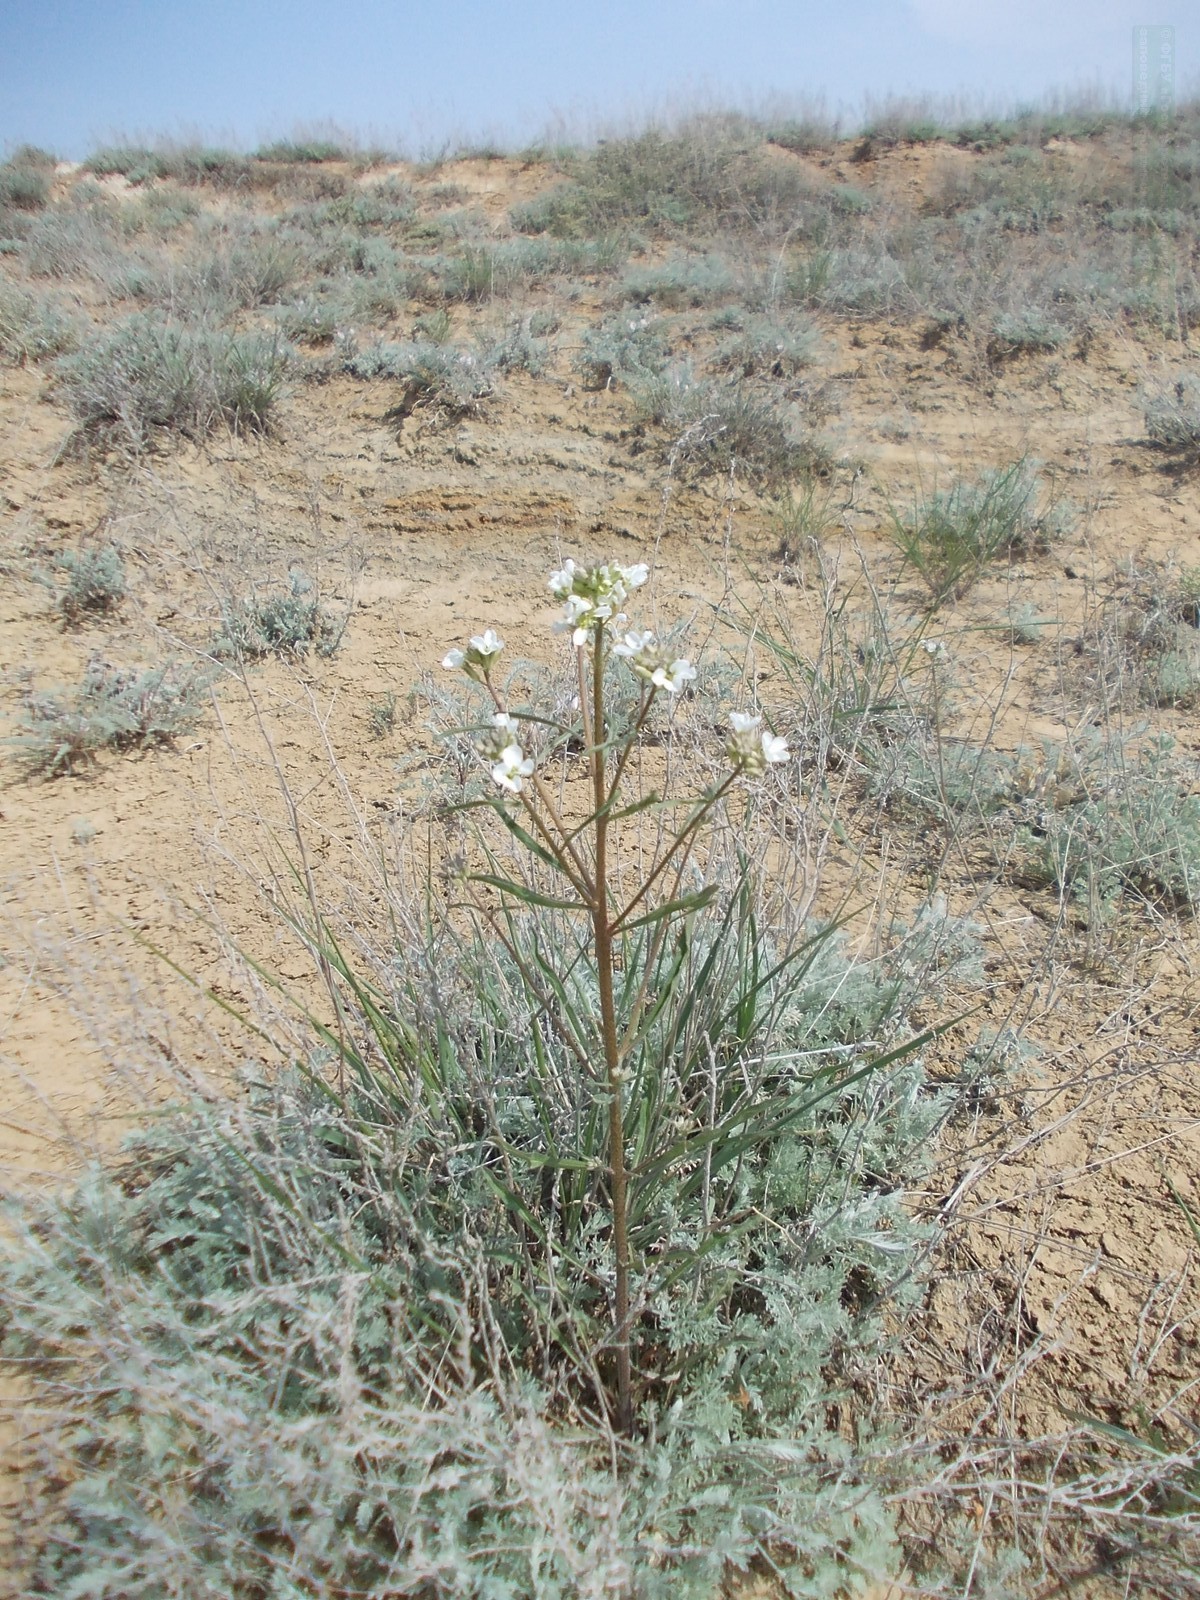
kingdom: Plantae
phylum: Tracheophyta
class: Magnoliopsida
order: Brassicales
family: Brassicaceae
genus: Erysimum
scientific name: Erysimum leucanthemum
